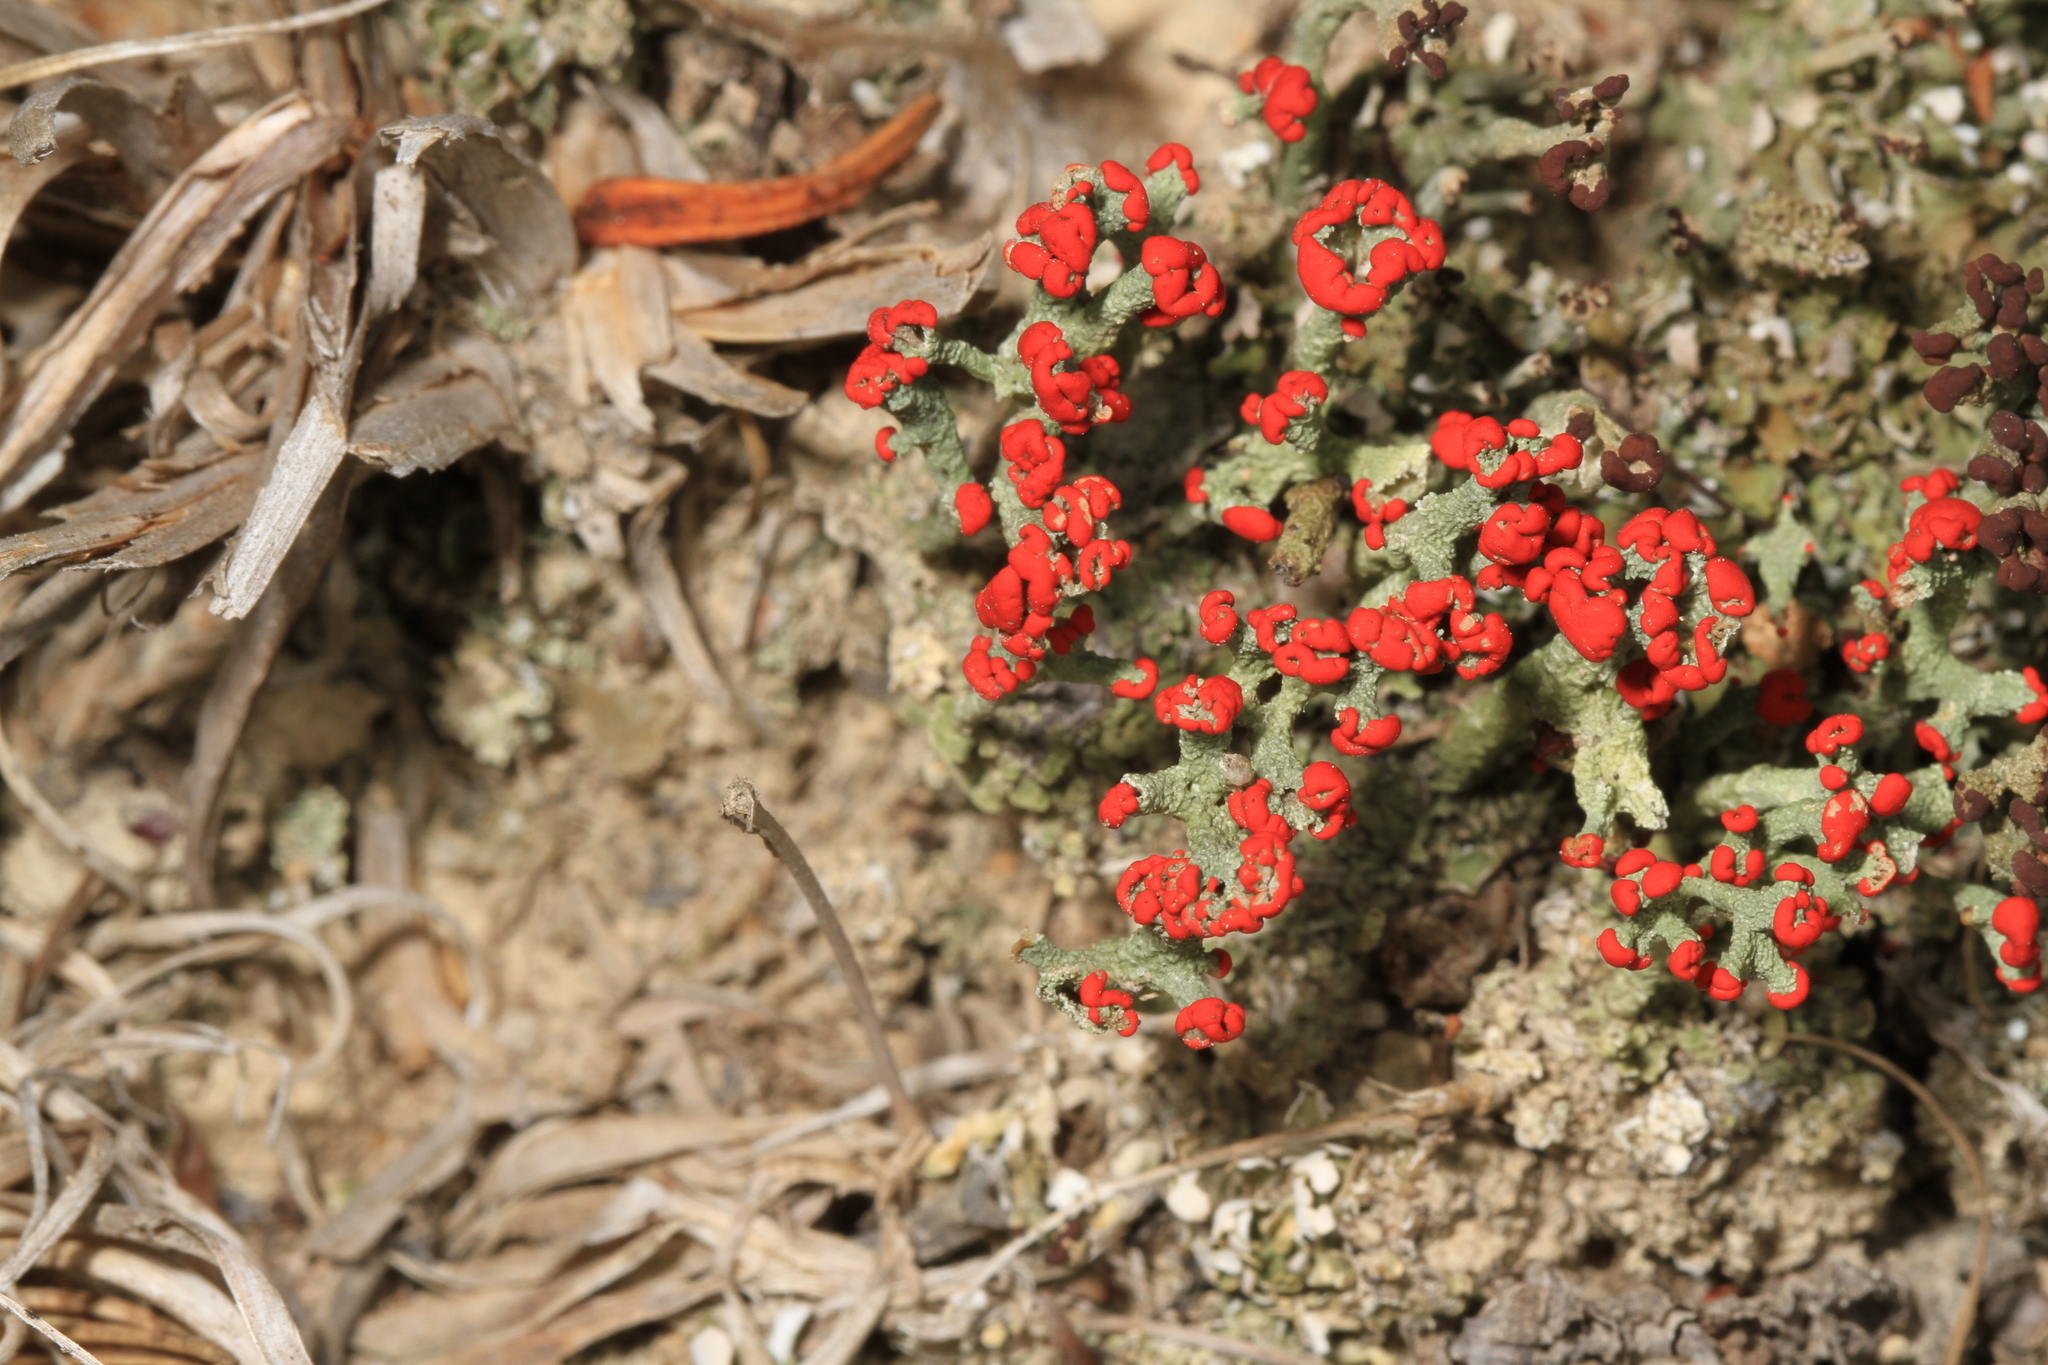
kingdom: Fungi
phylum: Ascomycota
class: Lecanoromycetes
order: Lecanorales
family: Cladoniaceae
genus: Cladonia
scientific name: Cladonia cristatella
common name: British soldier lichen
